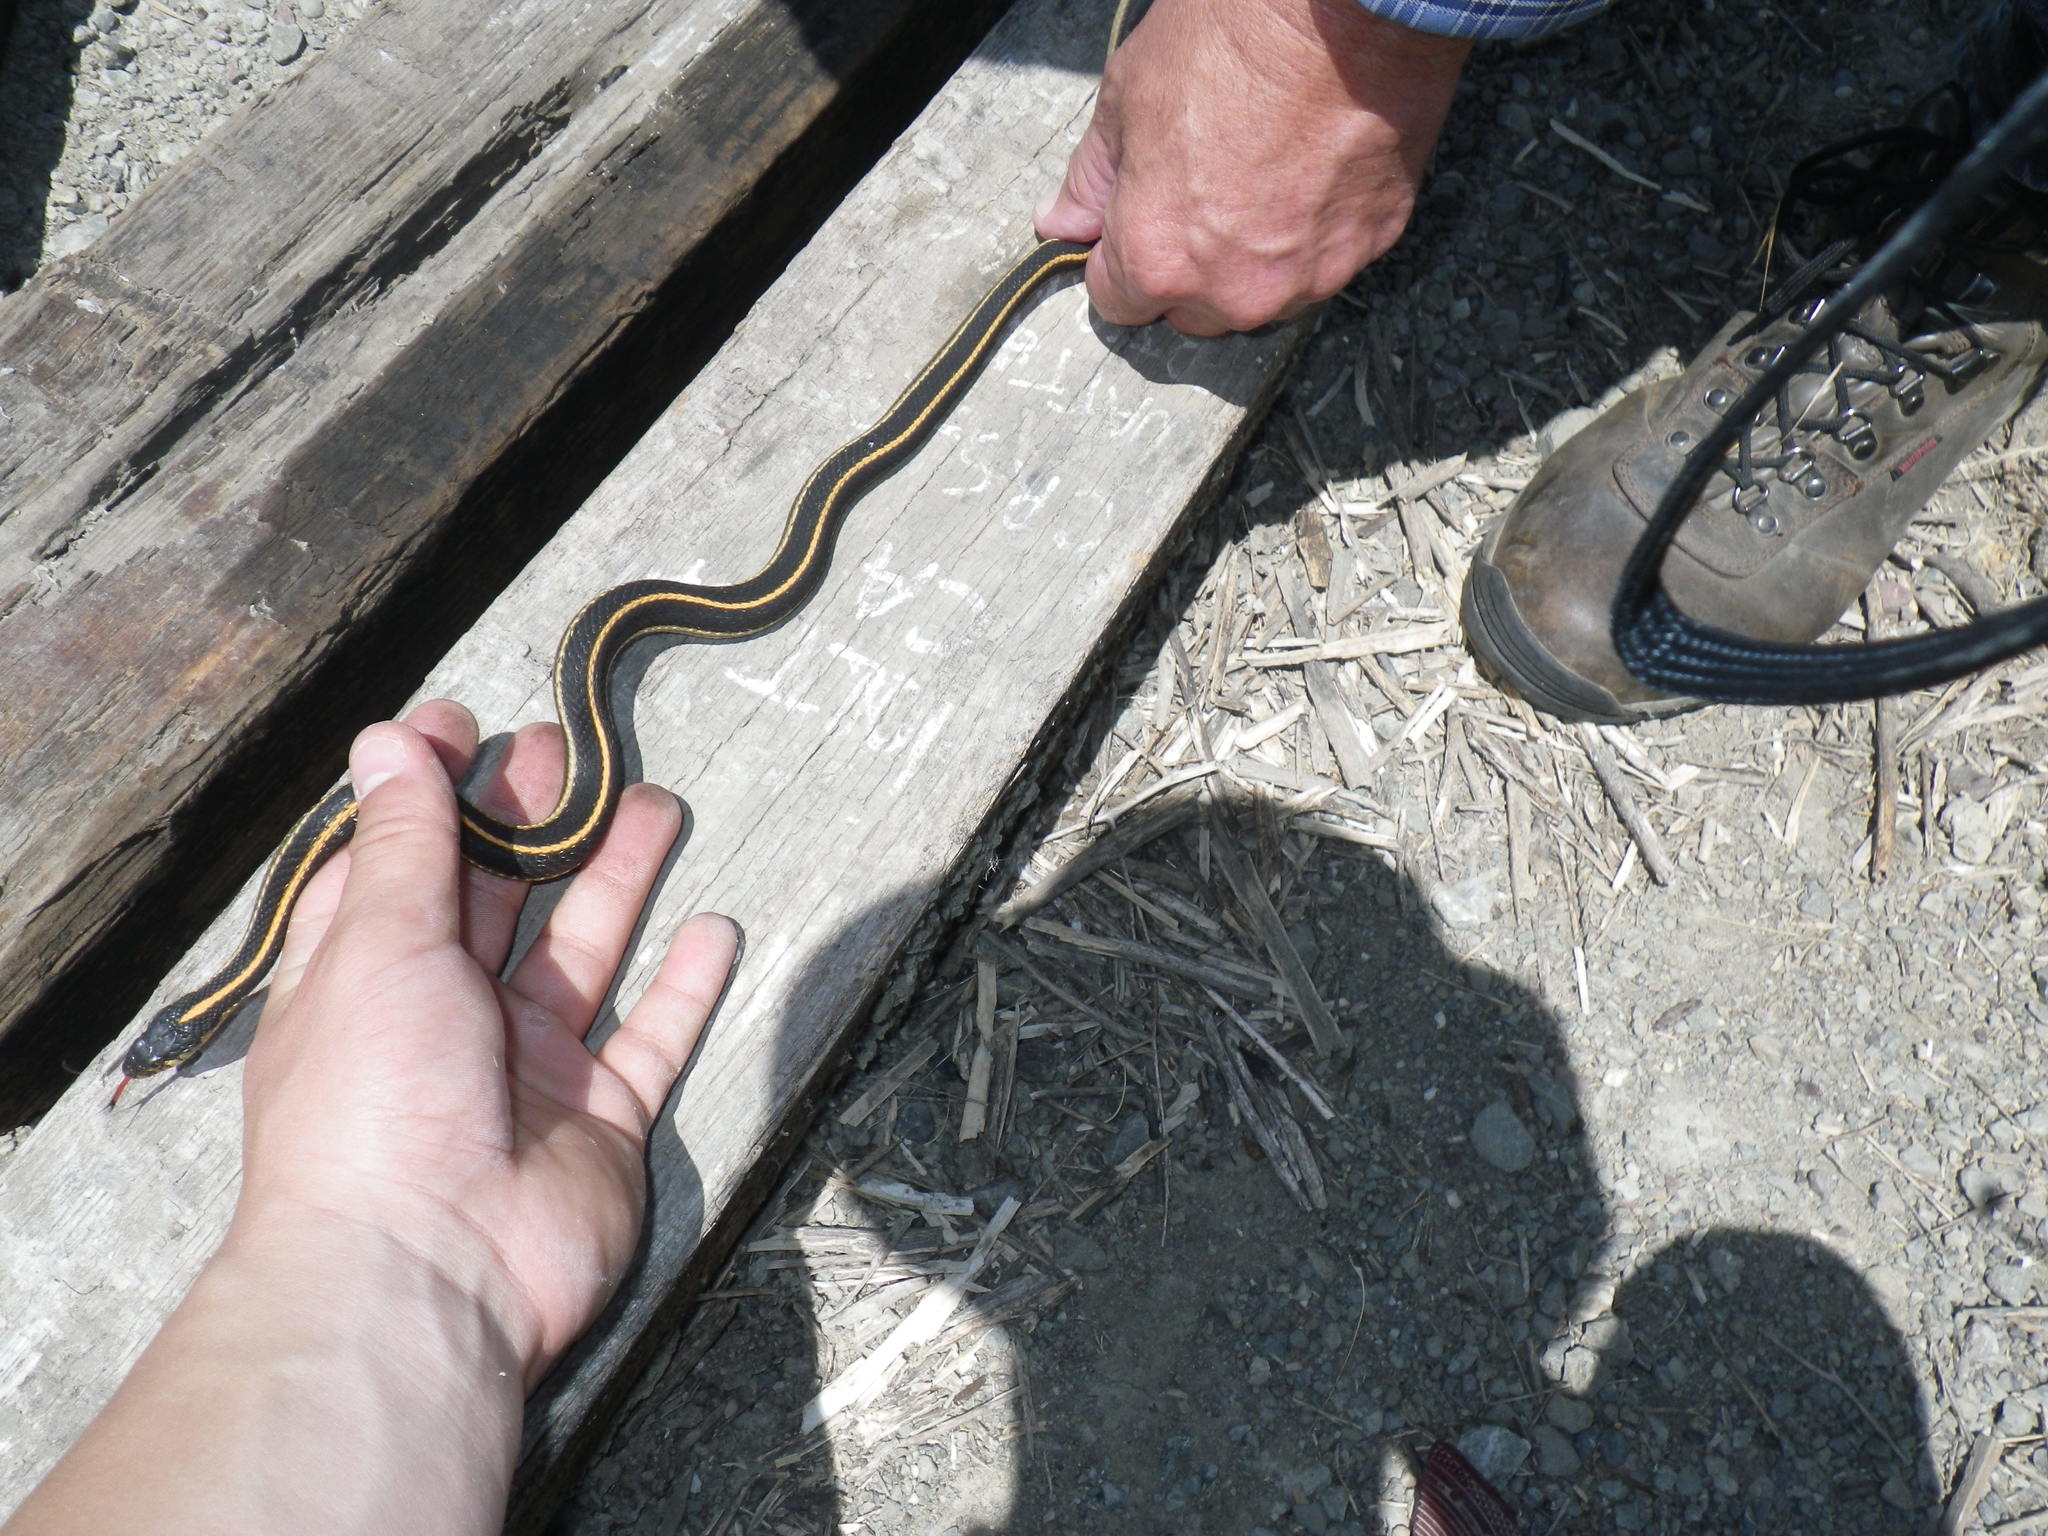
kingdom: Animalia
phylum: Chordata
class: Squamata
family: Colubridae
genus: Thamnophis
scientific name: Thamnophis elegans
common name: Western terrestrial garter snake
